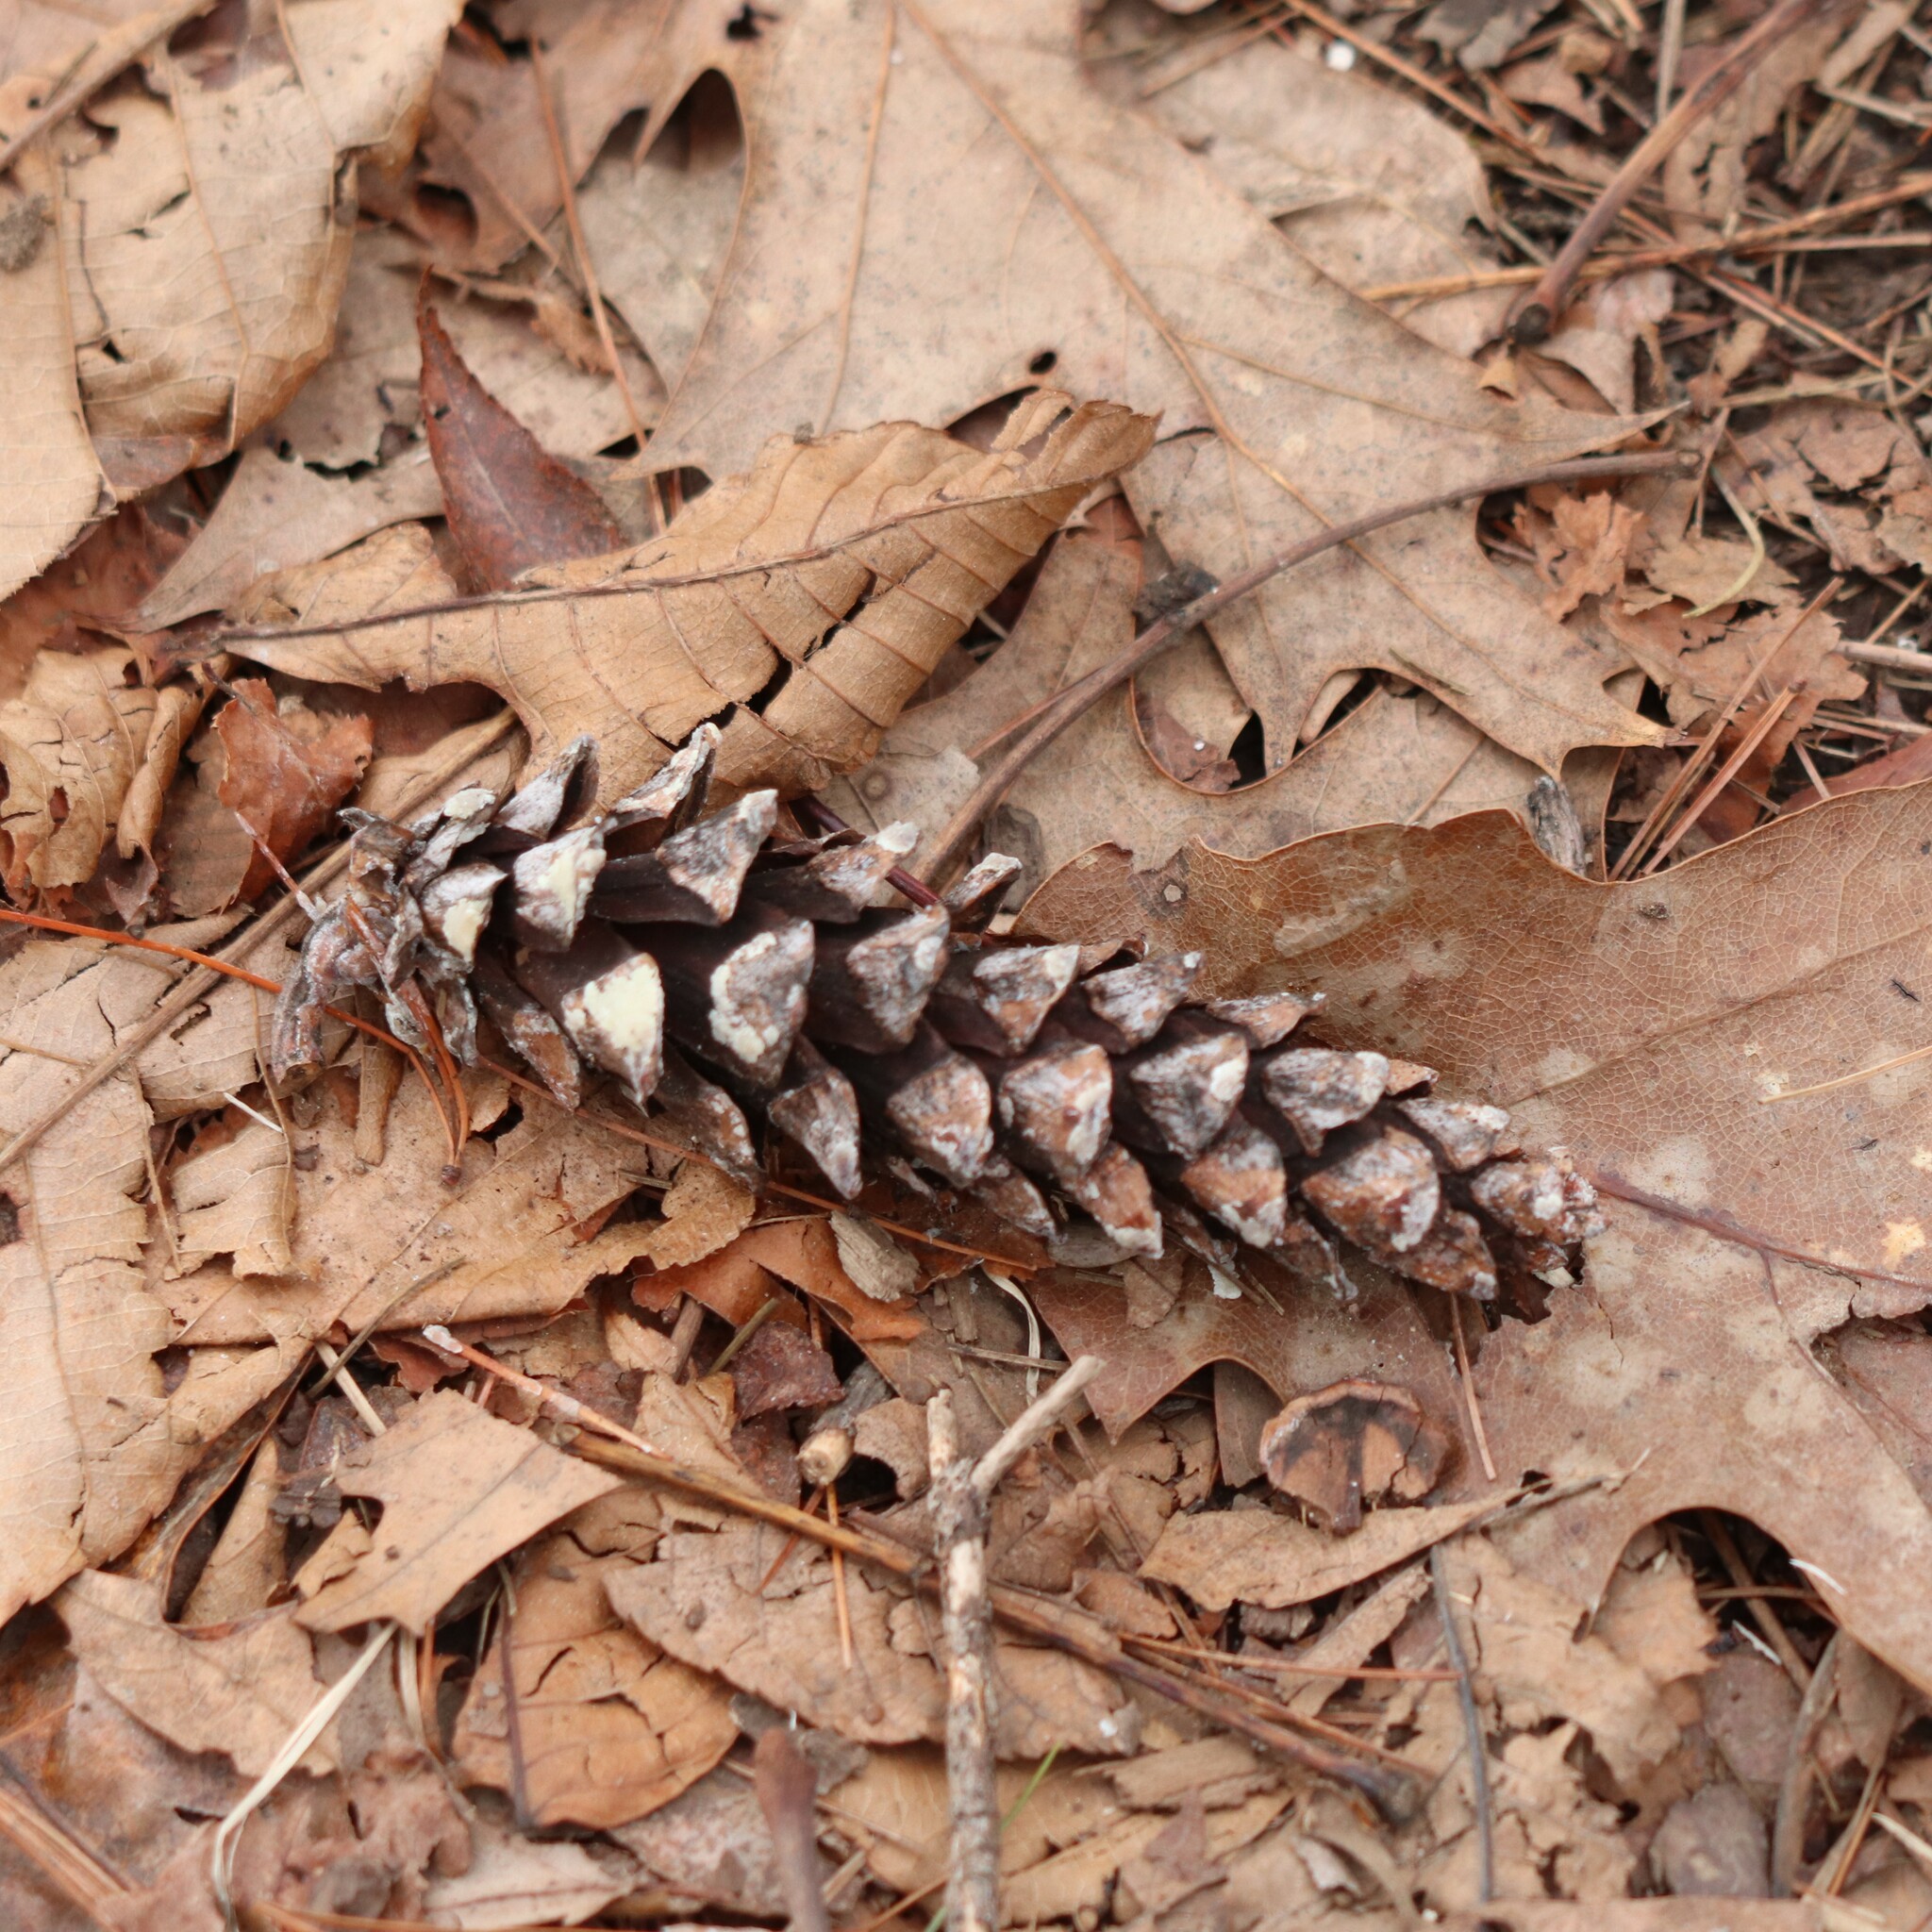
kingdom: Plantae
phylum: Tracheophyta
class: Pinopsida
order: Pinales
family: Pinaceae
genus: Pinus
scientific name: Pinus strobus
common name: Weymouth pine
